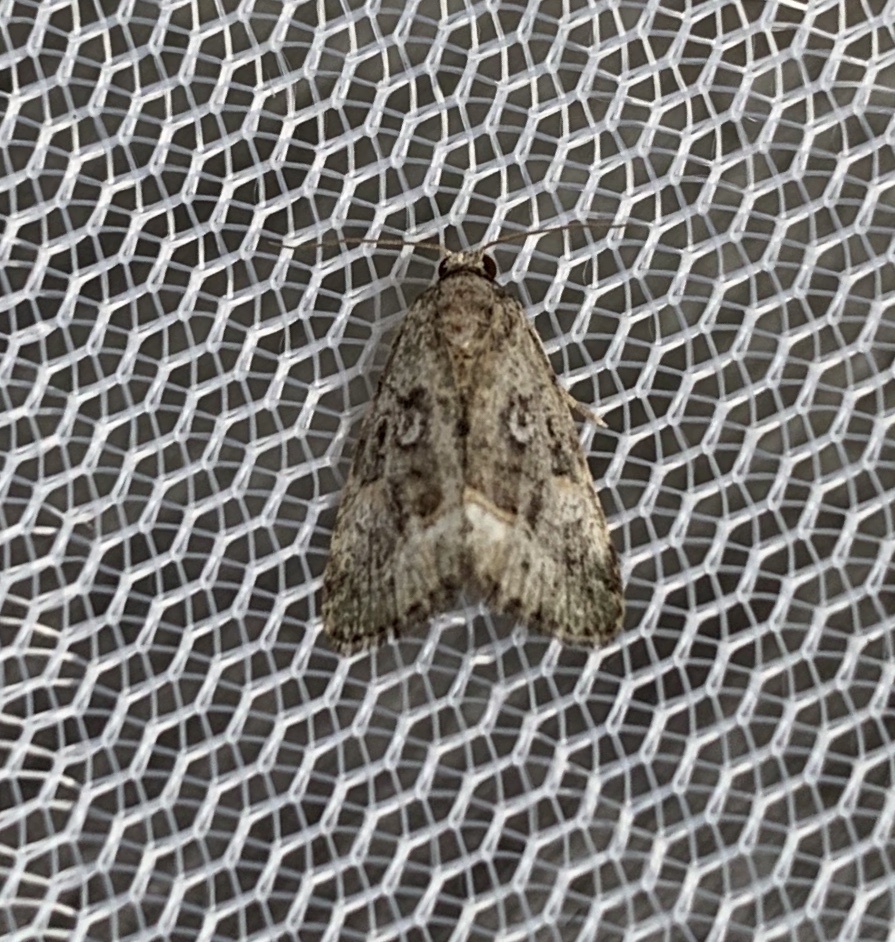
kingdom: Animalia
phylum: Arthropoda
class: Insecta
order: Lepidoptera
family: Noctuidae
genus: Lithacodia
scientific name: Lithacodia musta
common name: Small mossy glyph
